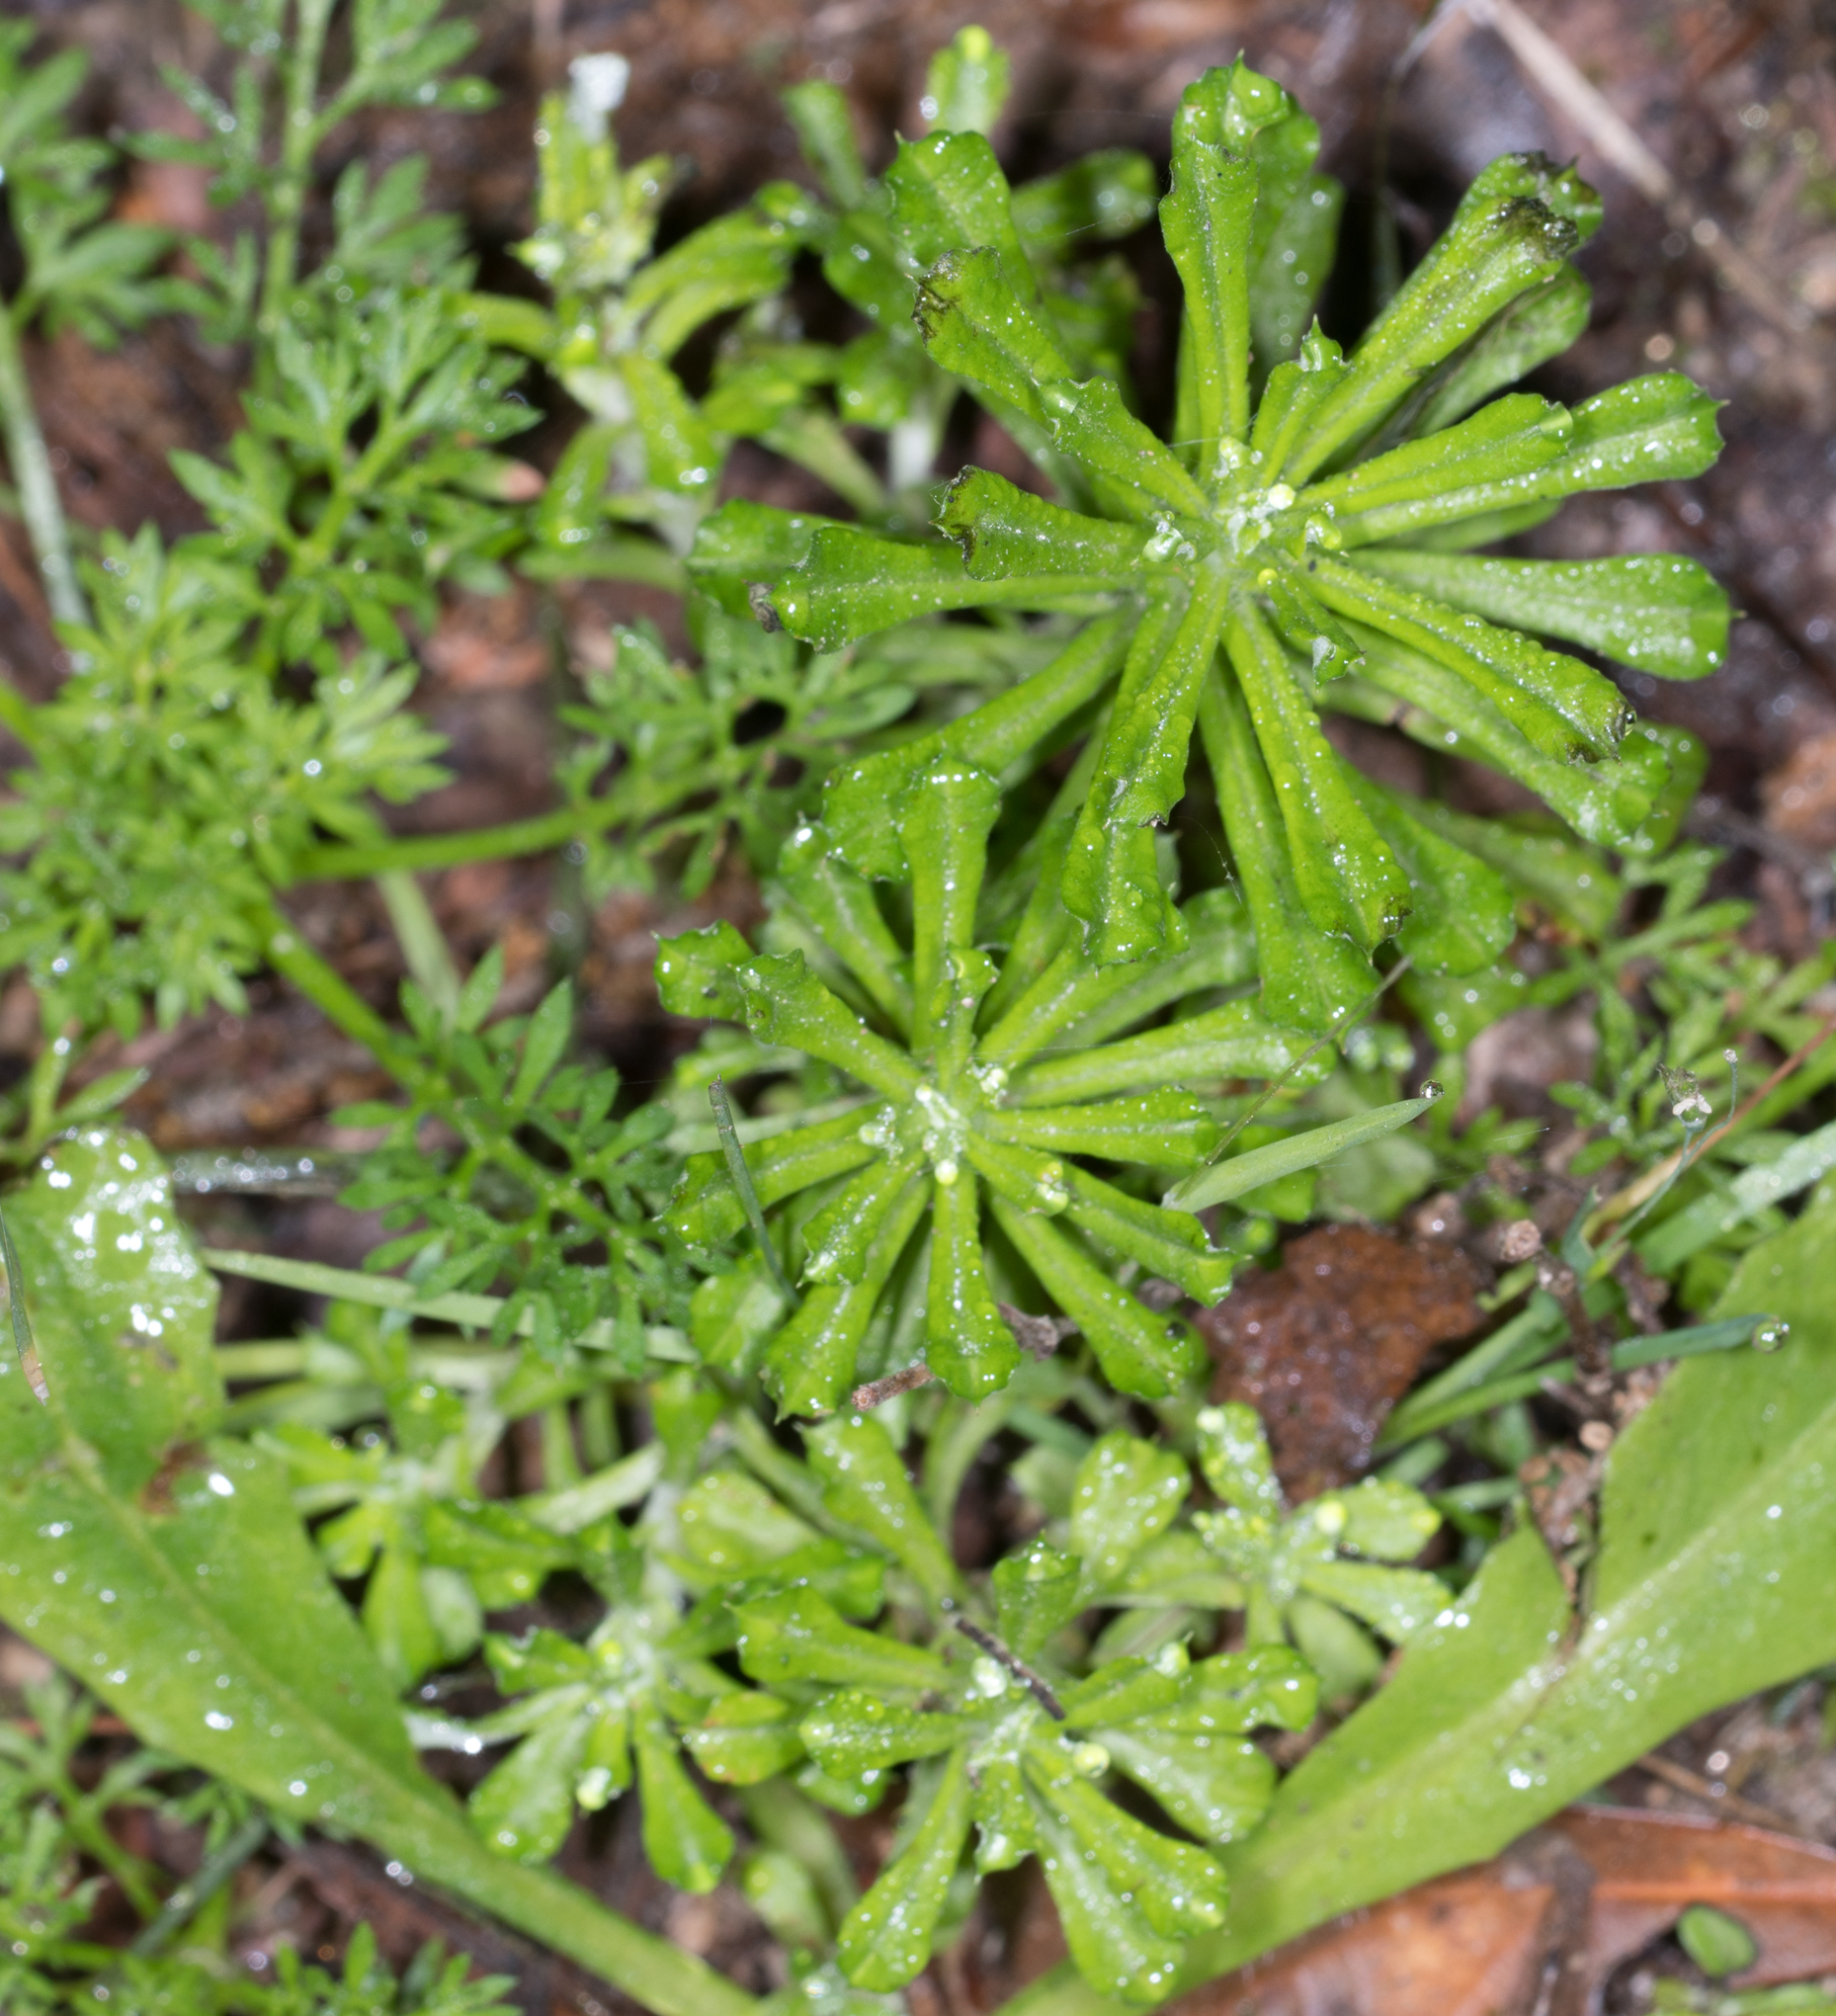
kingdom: Plantae
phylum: Tracheophyta
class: Magnoliopsida
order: Asterales
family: Asteraceae
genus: Facelis
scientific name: Facelis retusa
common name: Annual trampweed
